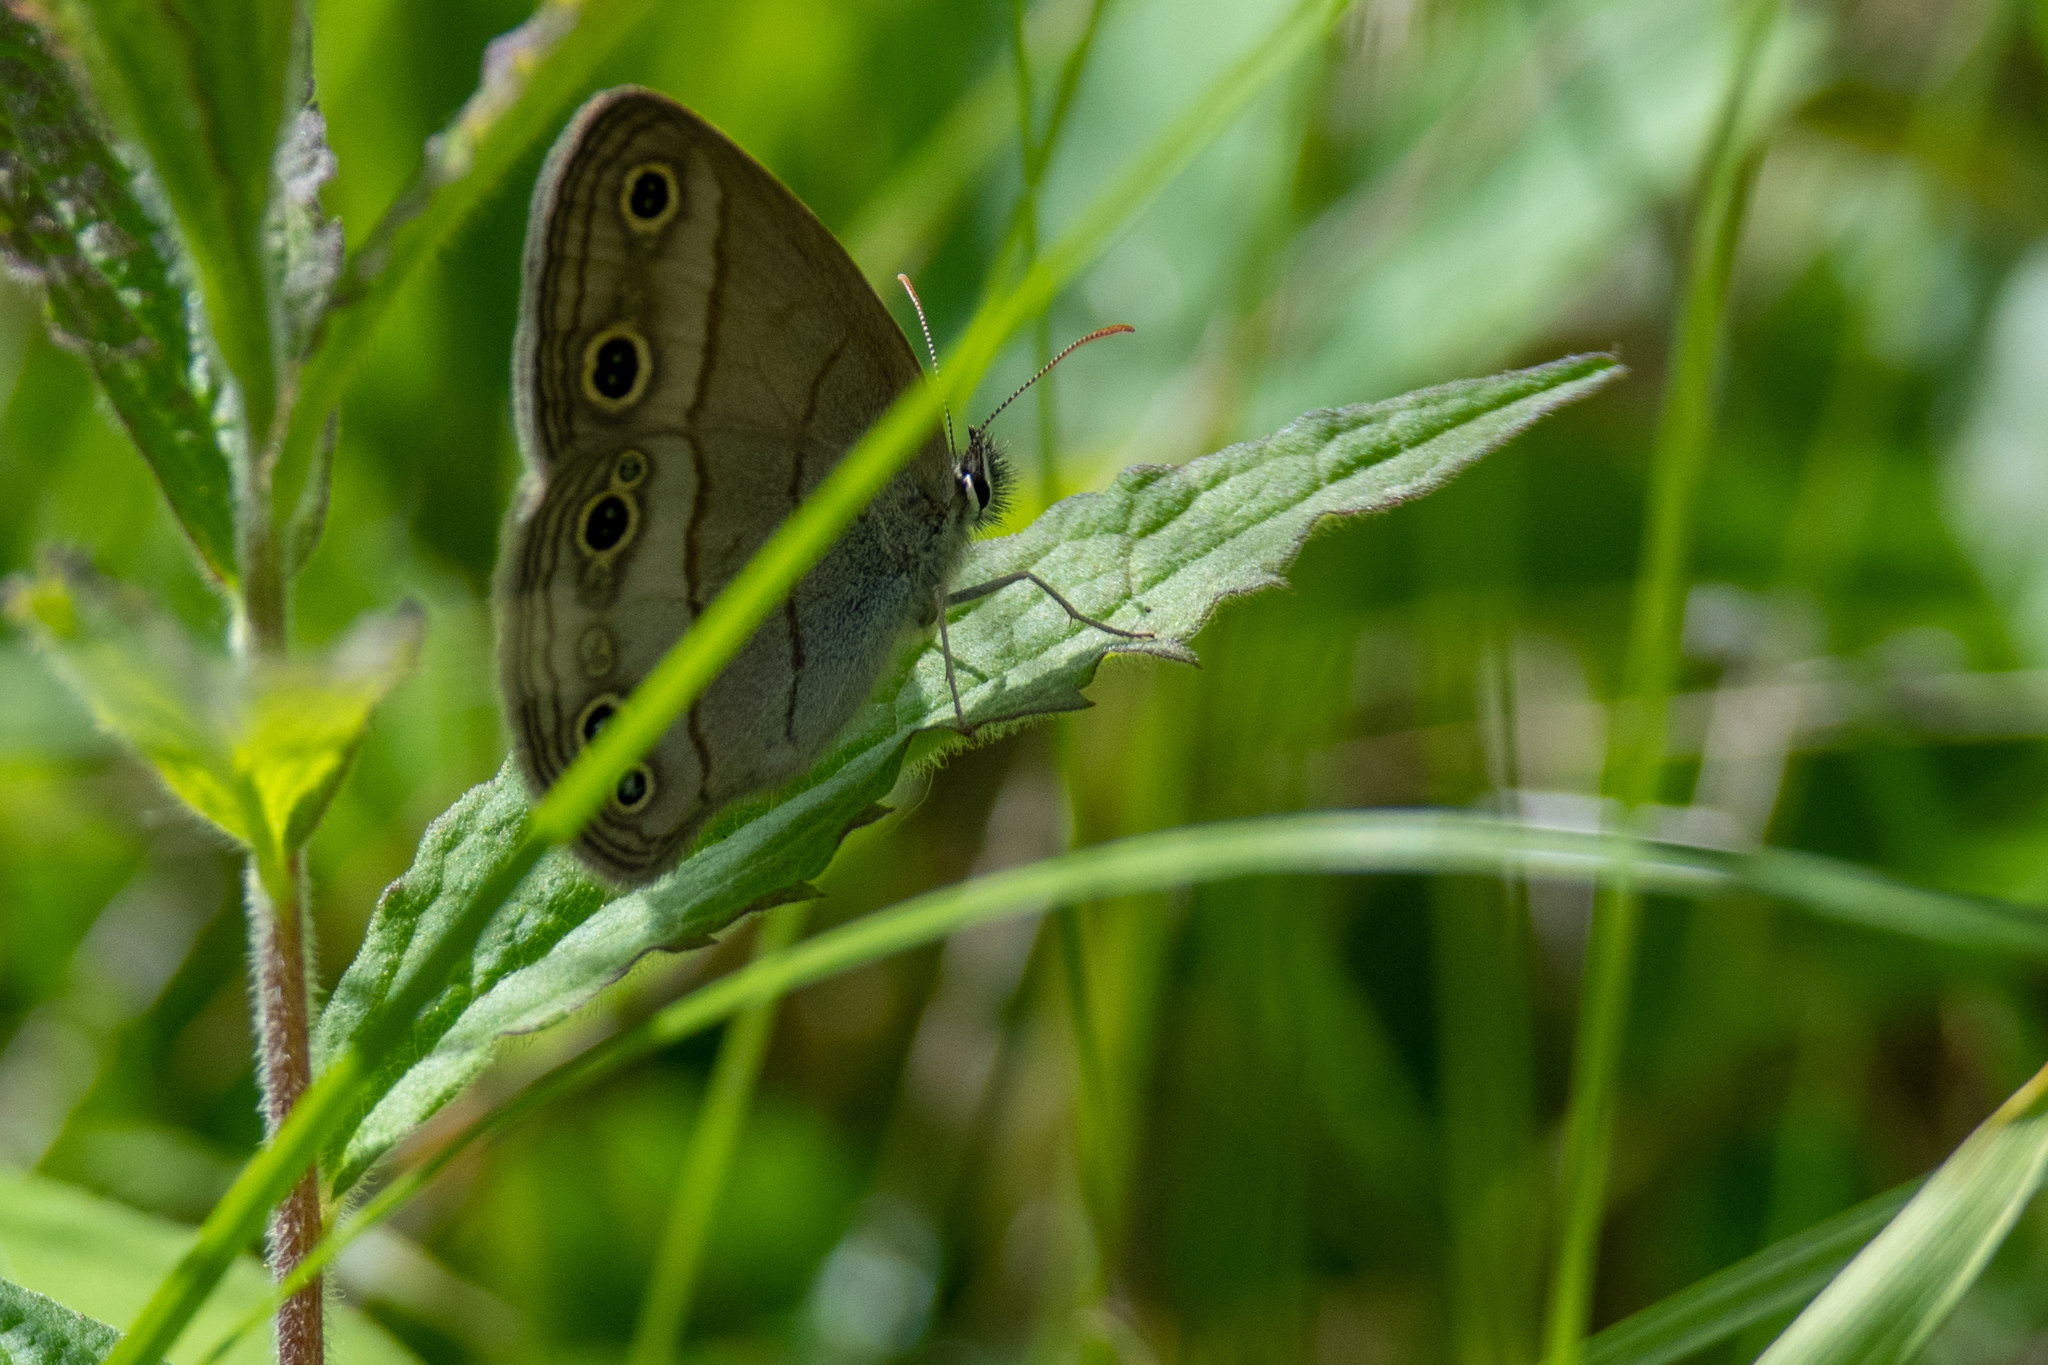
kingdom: Animalia
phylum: Arthropoda
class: Insecta
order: Lepidoptera
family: Nymphalidae
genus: Euptychia
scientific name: Euptychia cymela
